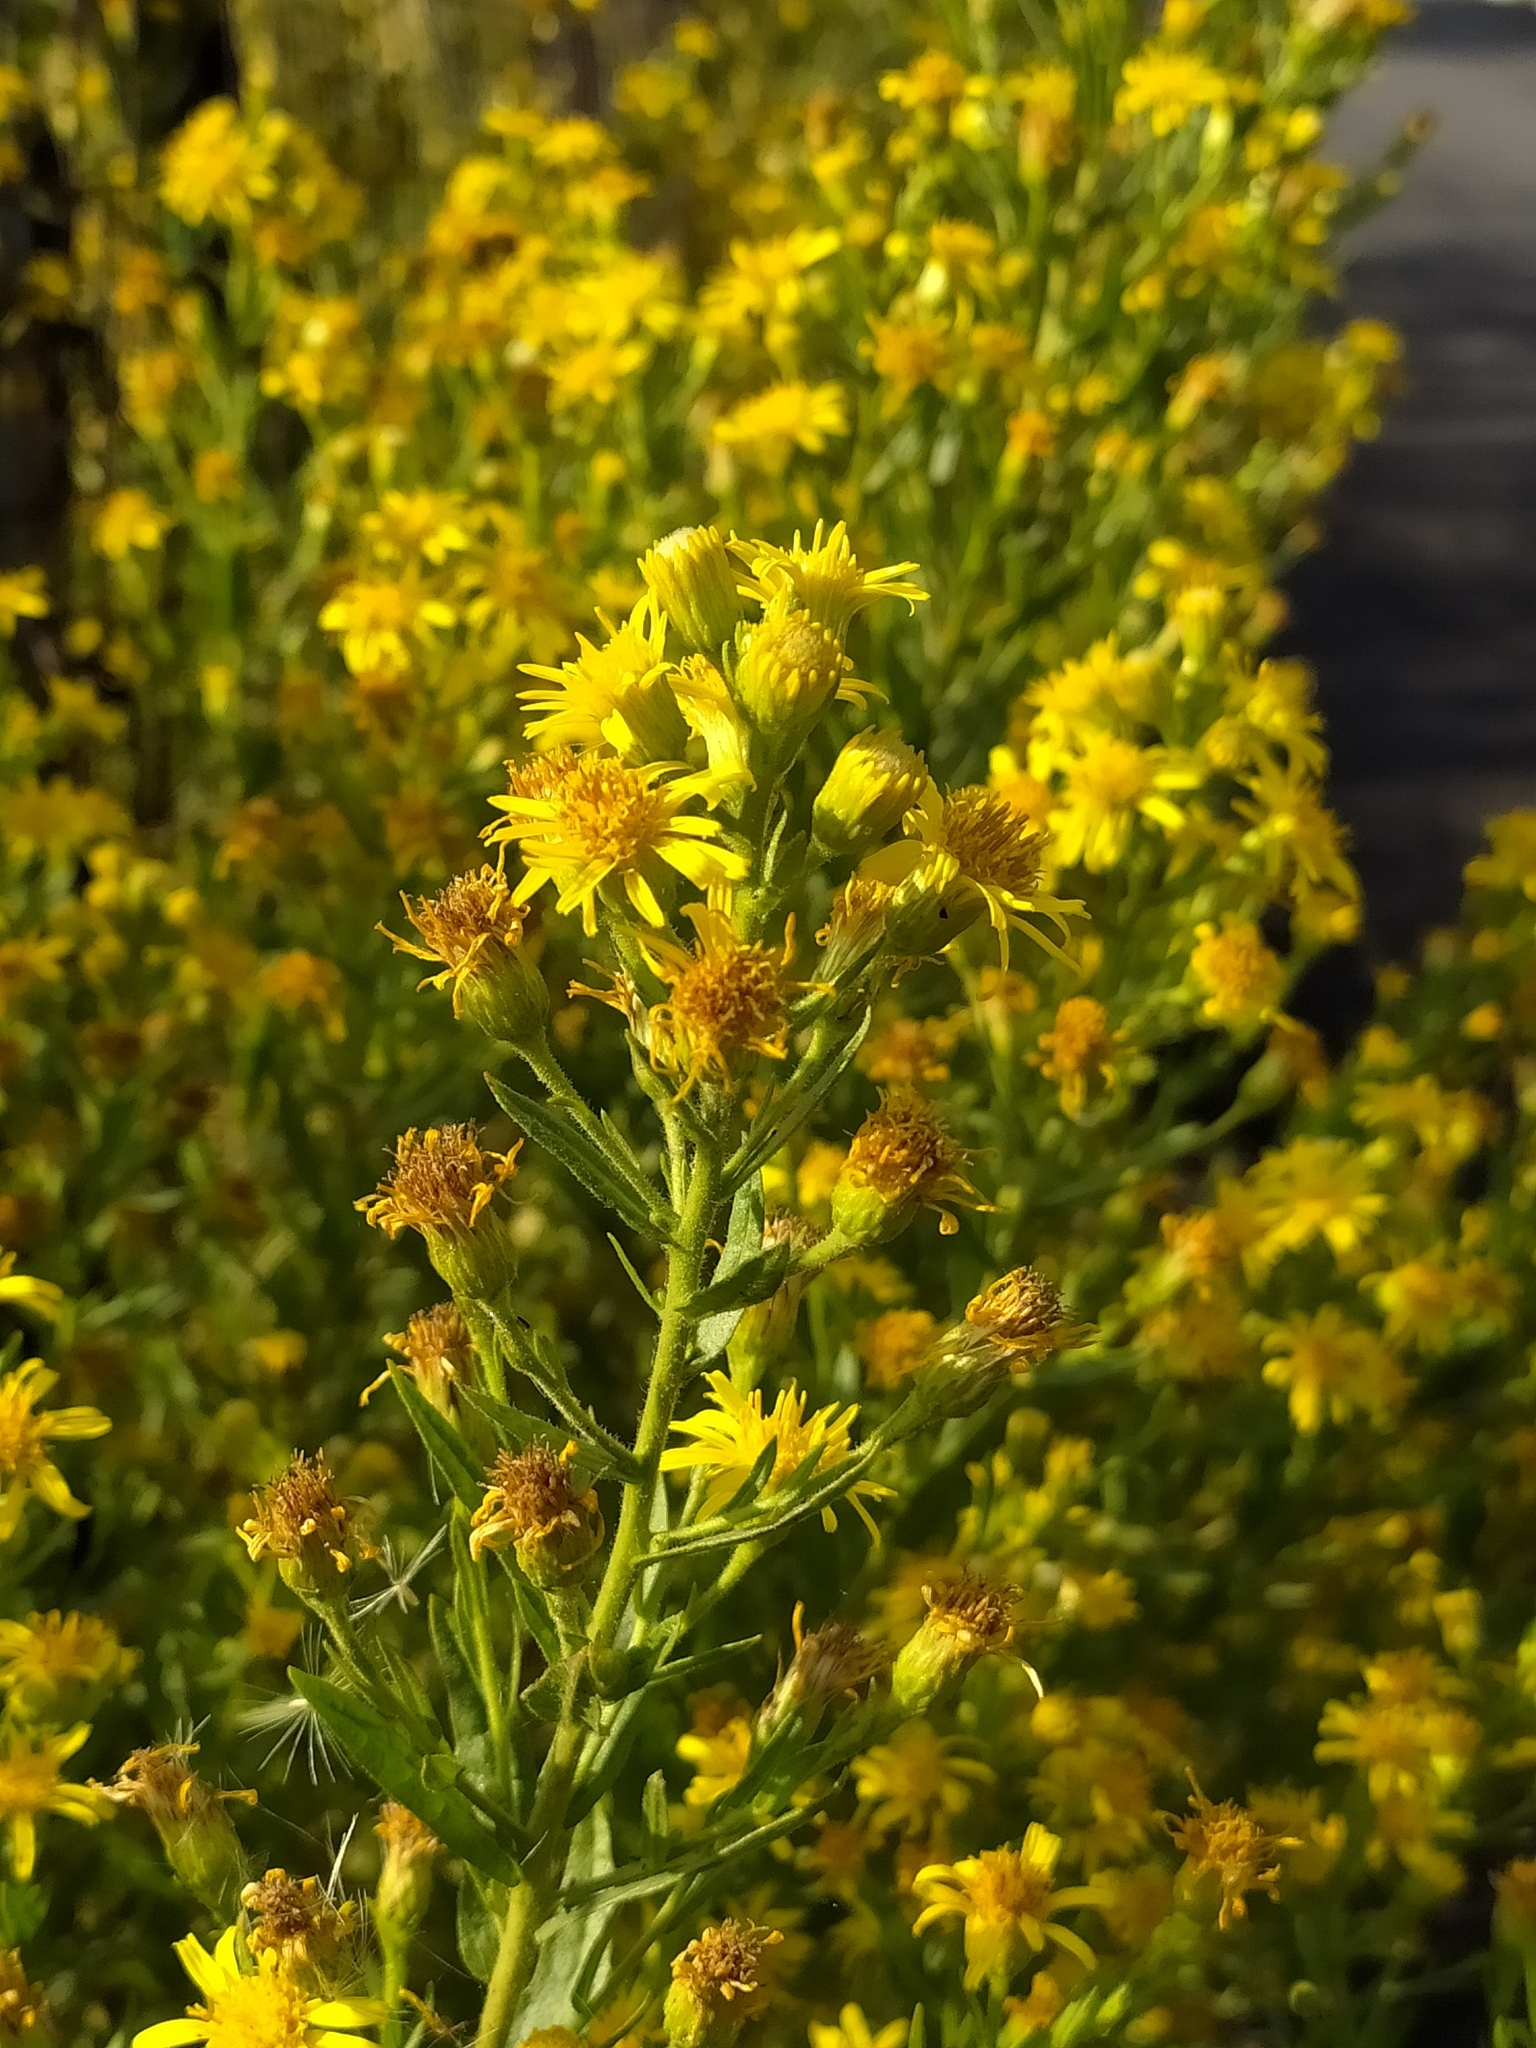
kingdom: Plantae
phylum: Tracheophyta
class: Magnoliopsida
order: Asterales
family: Asteraceae
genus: Dittrichia
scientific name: Dittrichia viscosa
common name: Woody fleabane
